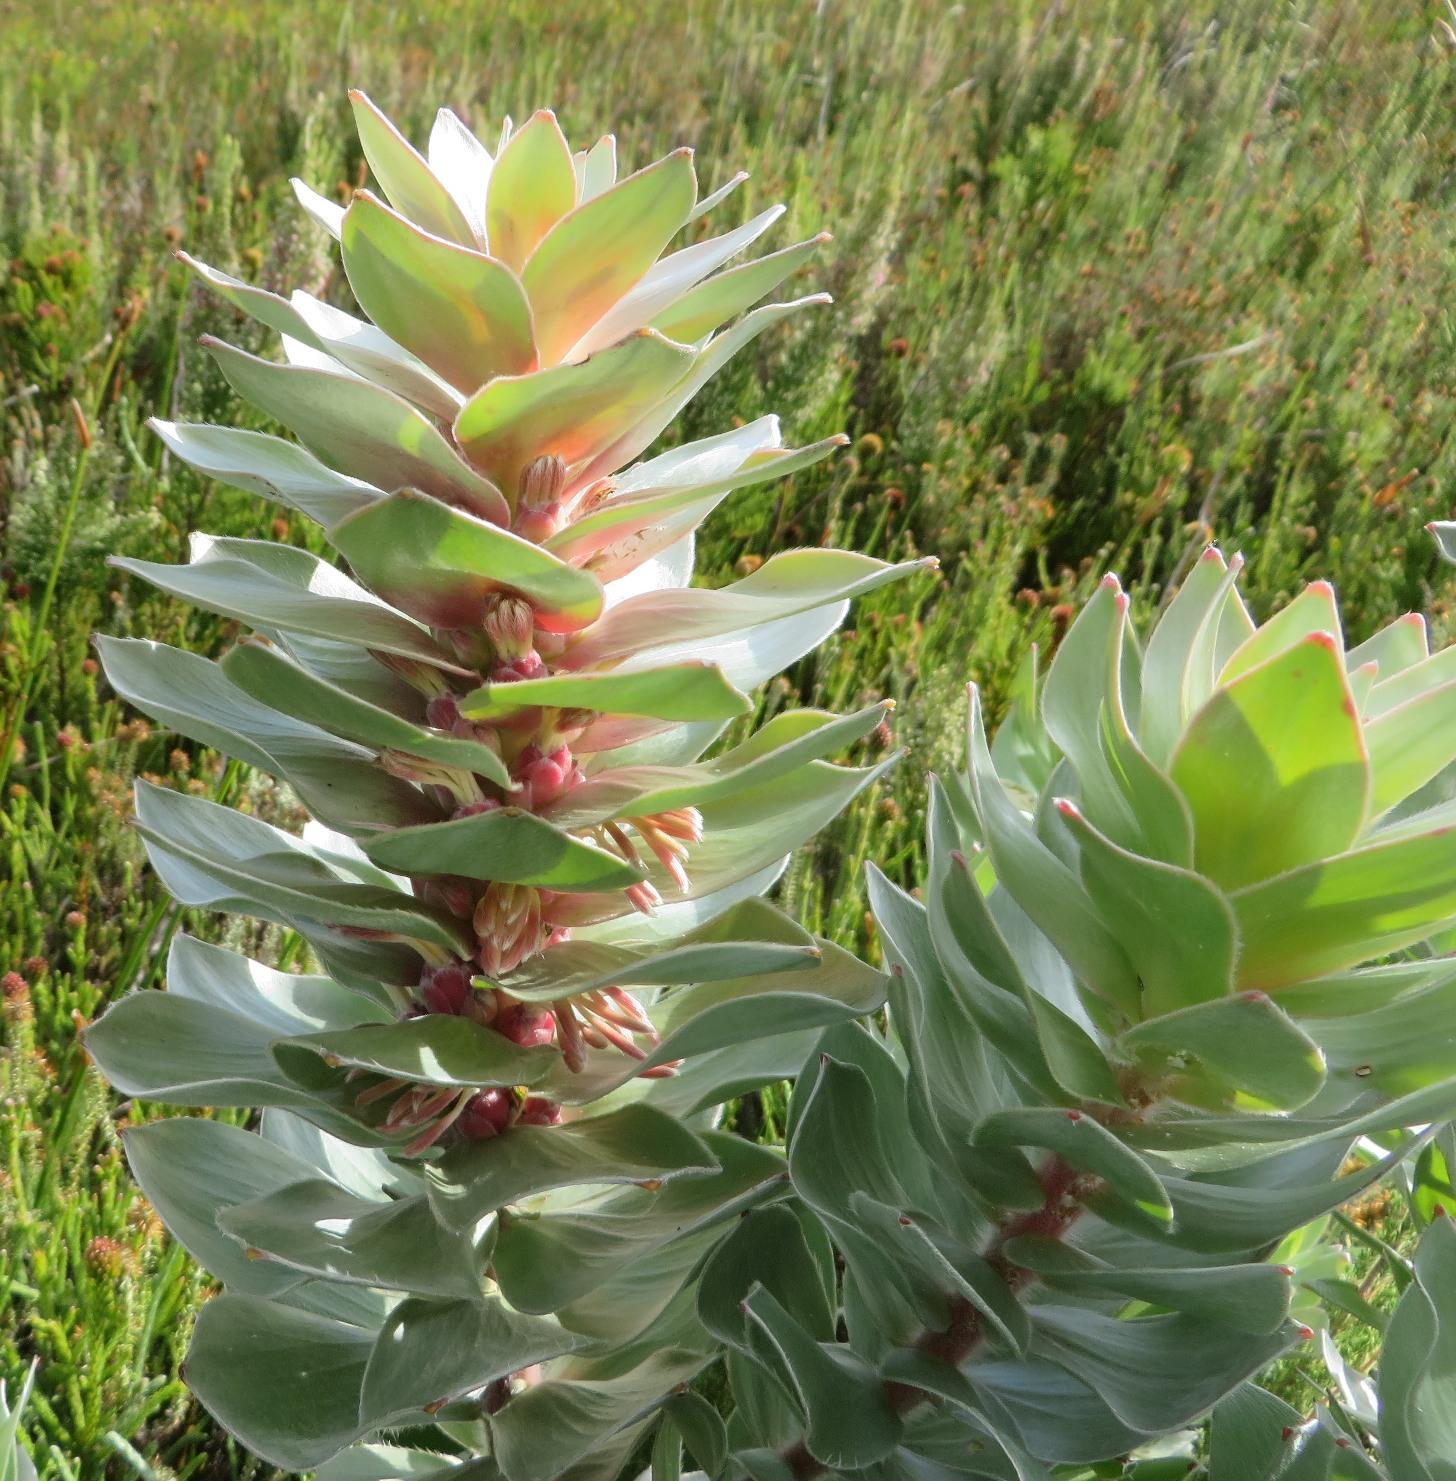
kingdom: Plantae
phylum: Tracheophyta
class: Magnoliopsida
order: Proteales
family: Proteaceae
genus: Mimetes
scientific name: Mimetes argenteus
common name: Silver pagoda
